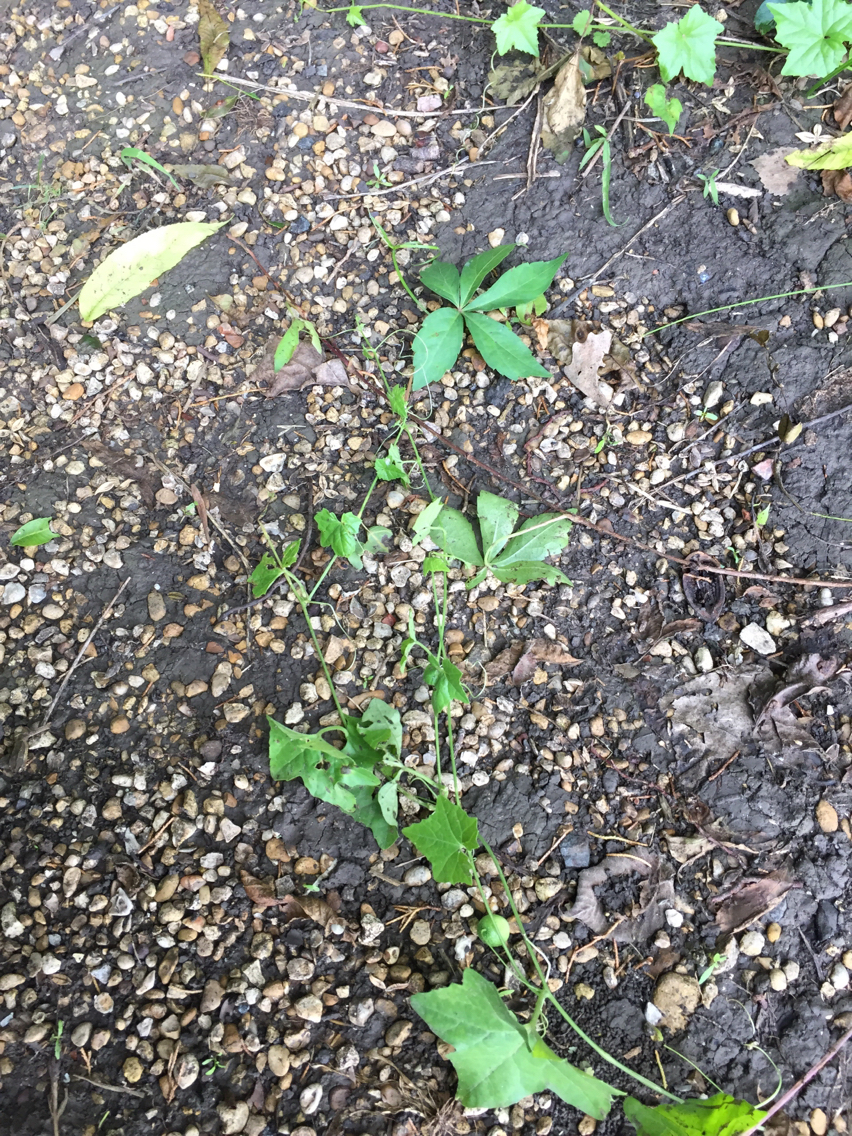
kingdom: Plantae
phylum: Tracheophyta
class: Magnoliopsida
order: Cucurbitales
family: Cucurbitaceae
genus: Melothria
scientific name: Melothria pendula
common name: Creeping-cucumber
